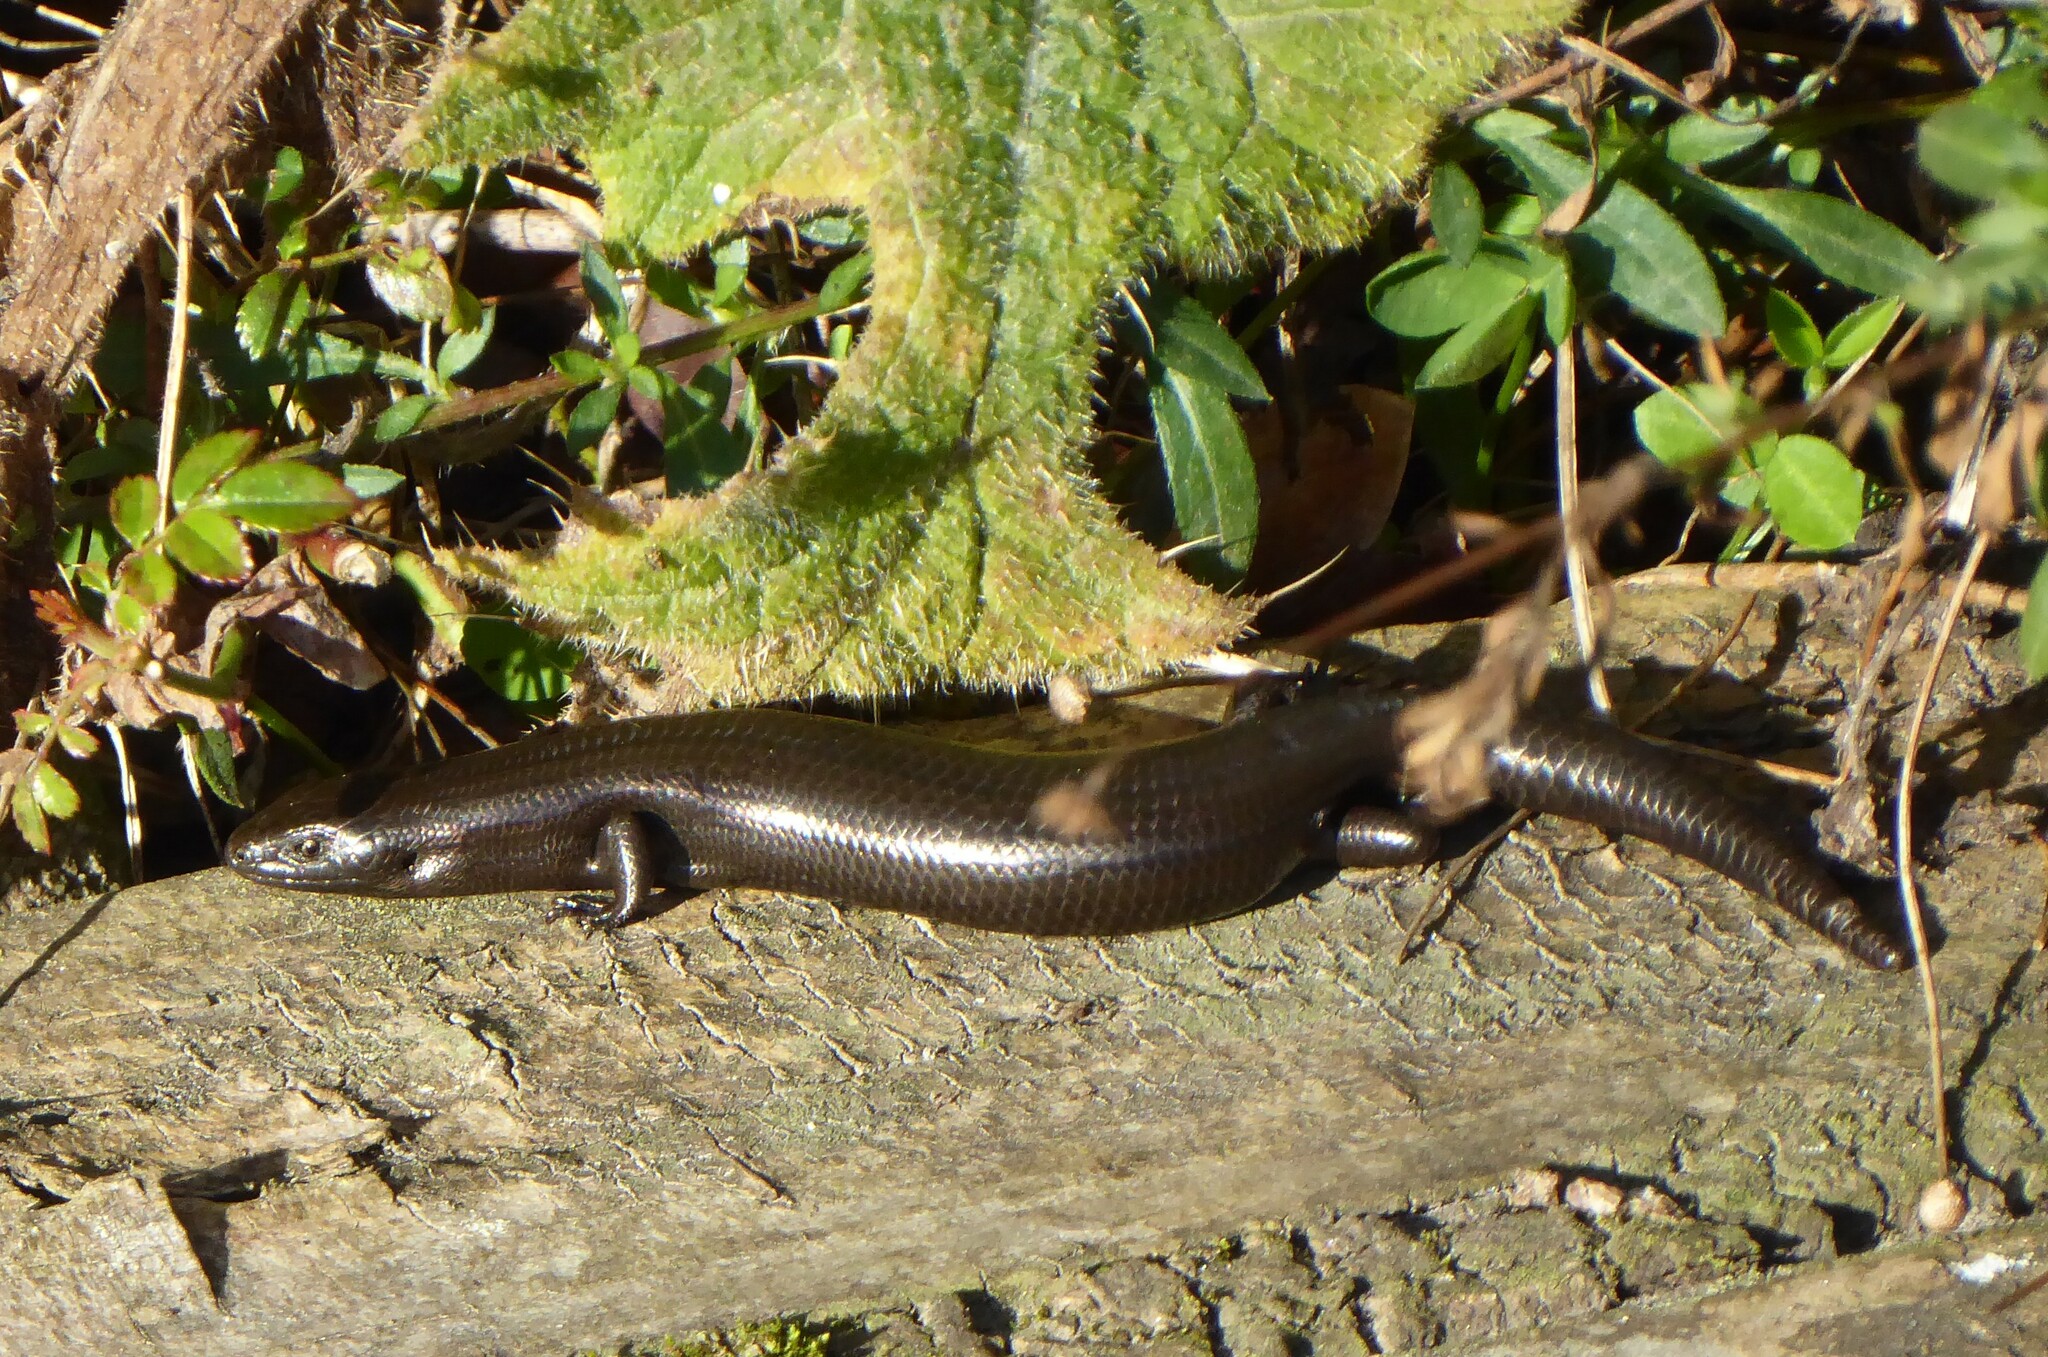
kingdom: Animalia
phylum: Chordata
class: Squamata
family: Scincidae
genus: Oligosoma
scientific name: Oligosoma polychroma
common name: Common new zealand skink
